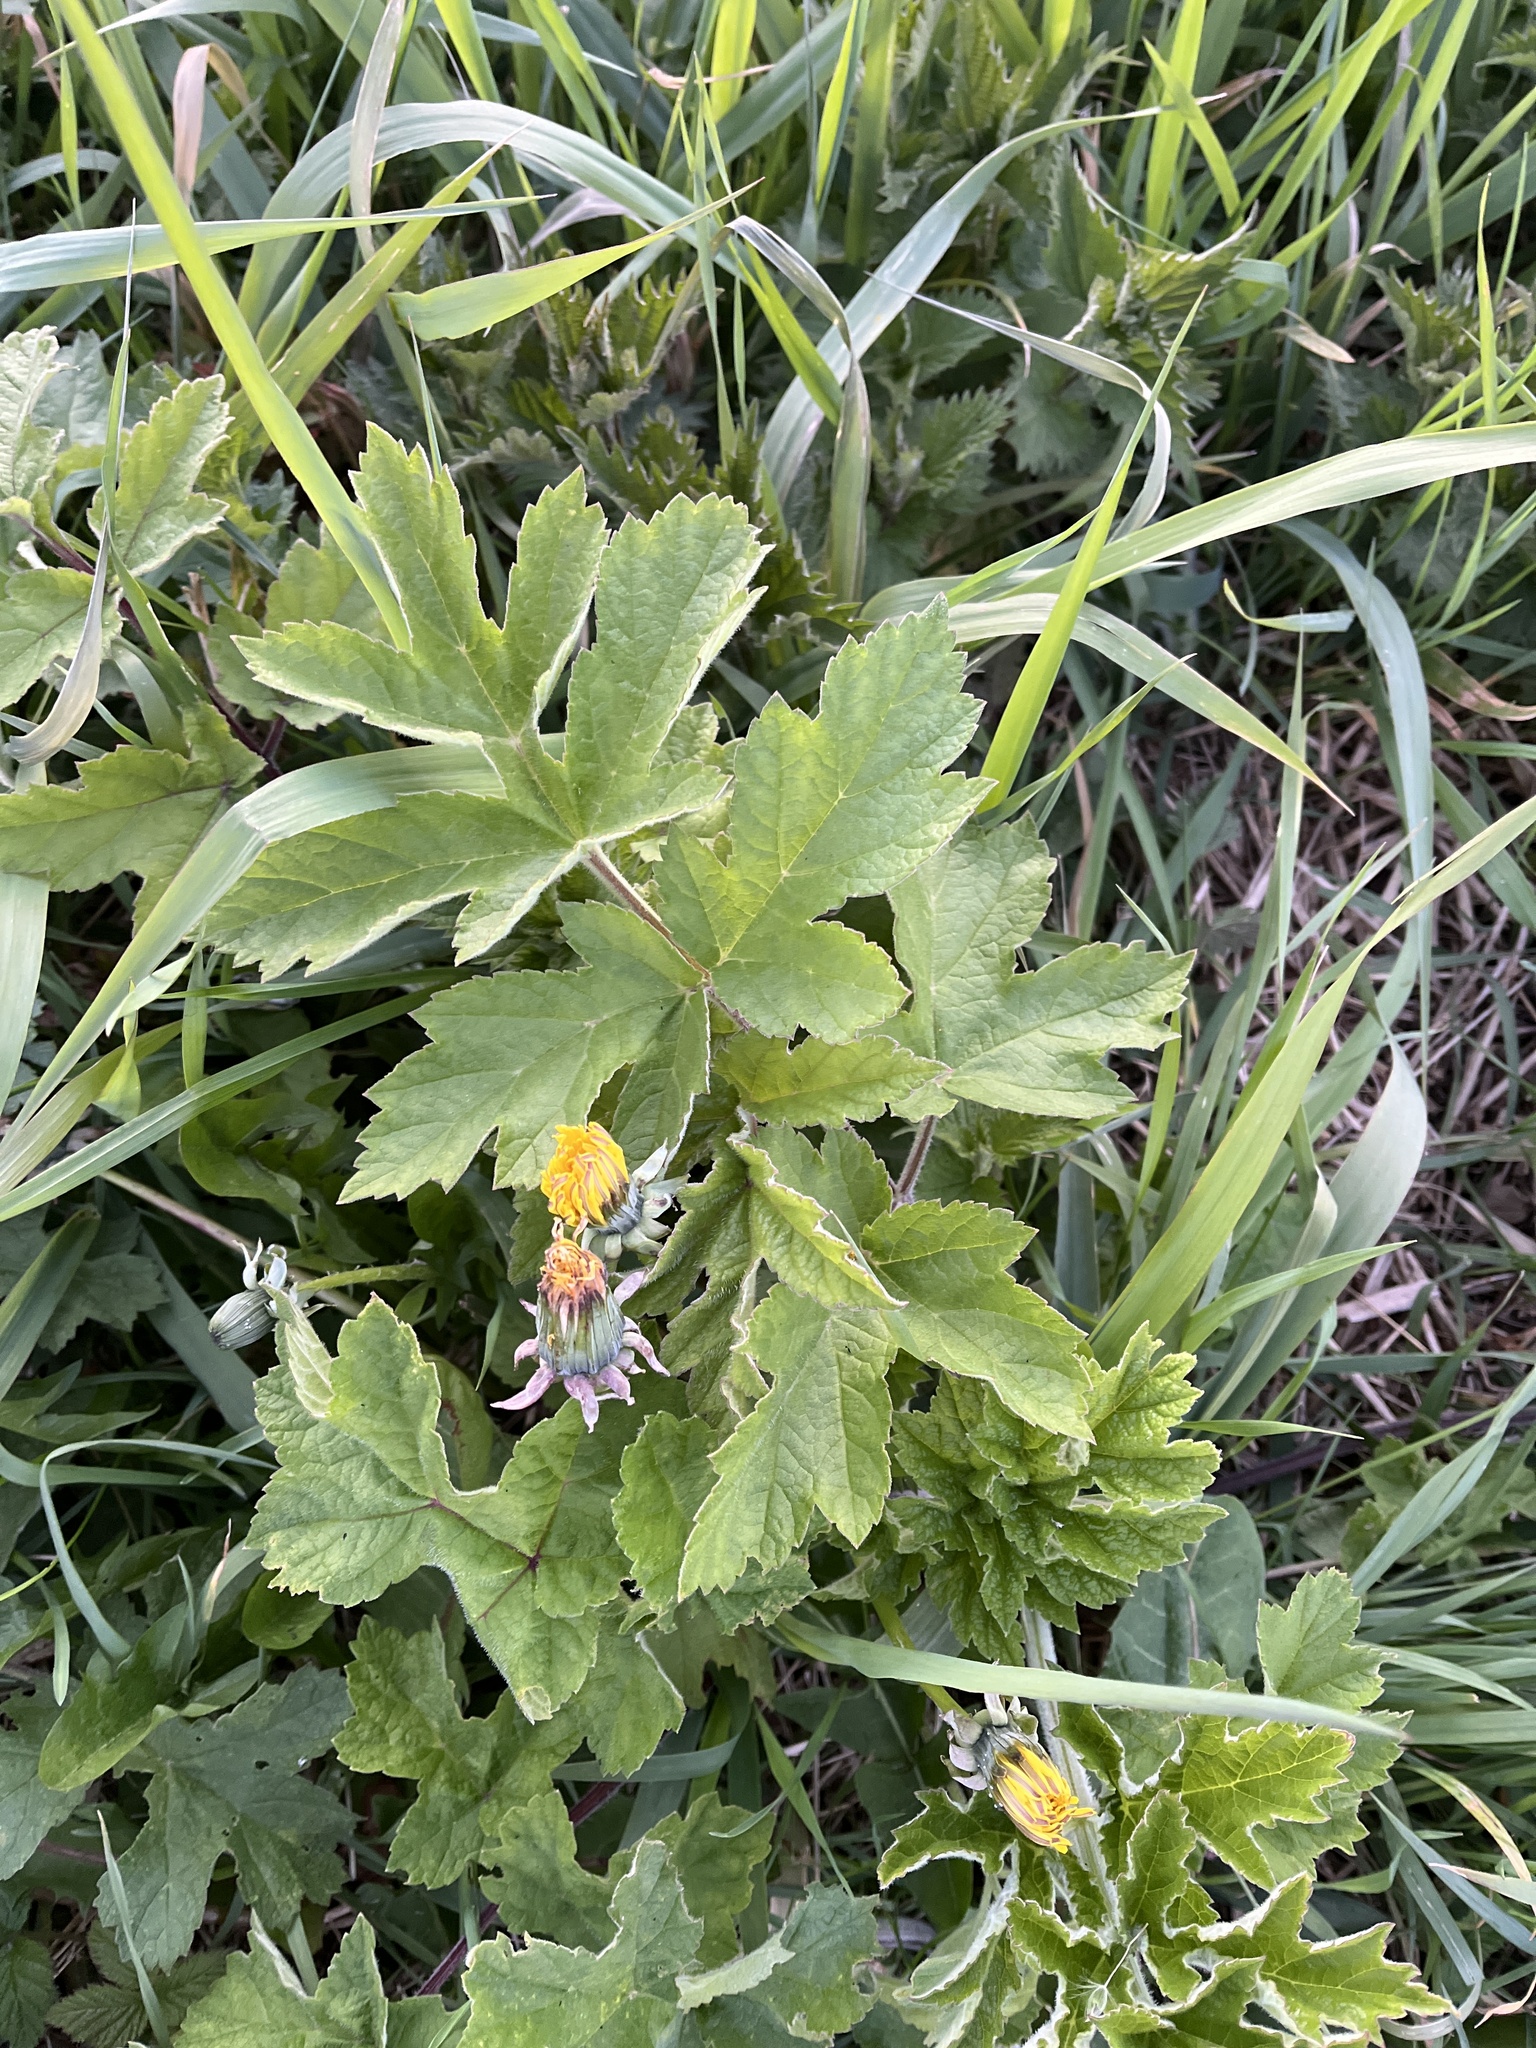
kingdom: Plantae
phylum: Tracheophyta
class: Magnoliopsida
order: Apiales
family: Apiaceae
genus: Heracleum
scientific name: Heracleum sphondylium
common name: Hogweed
